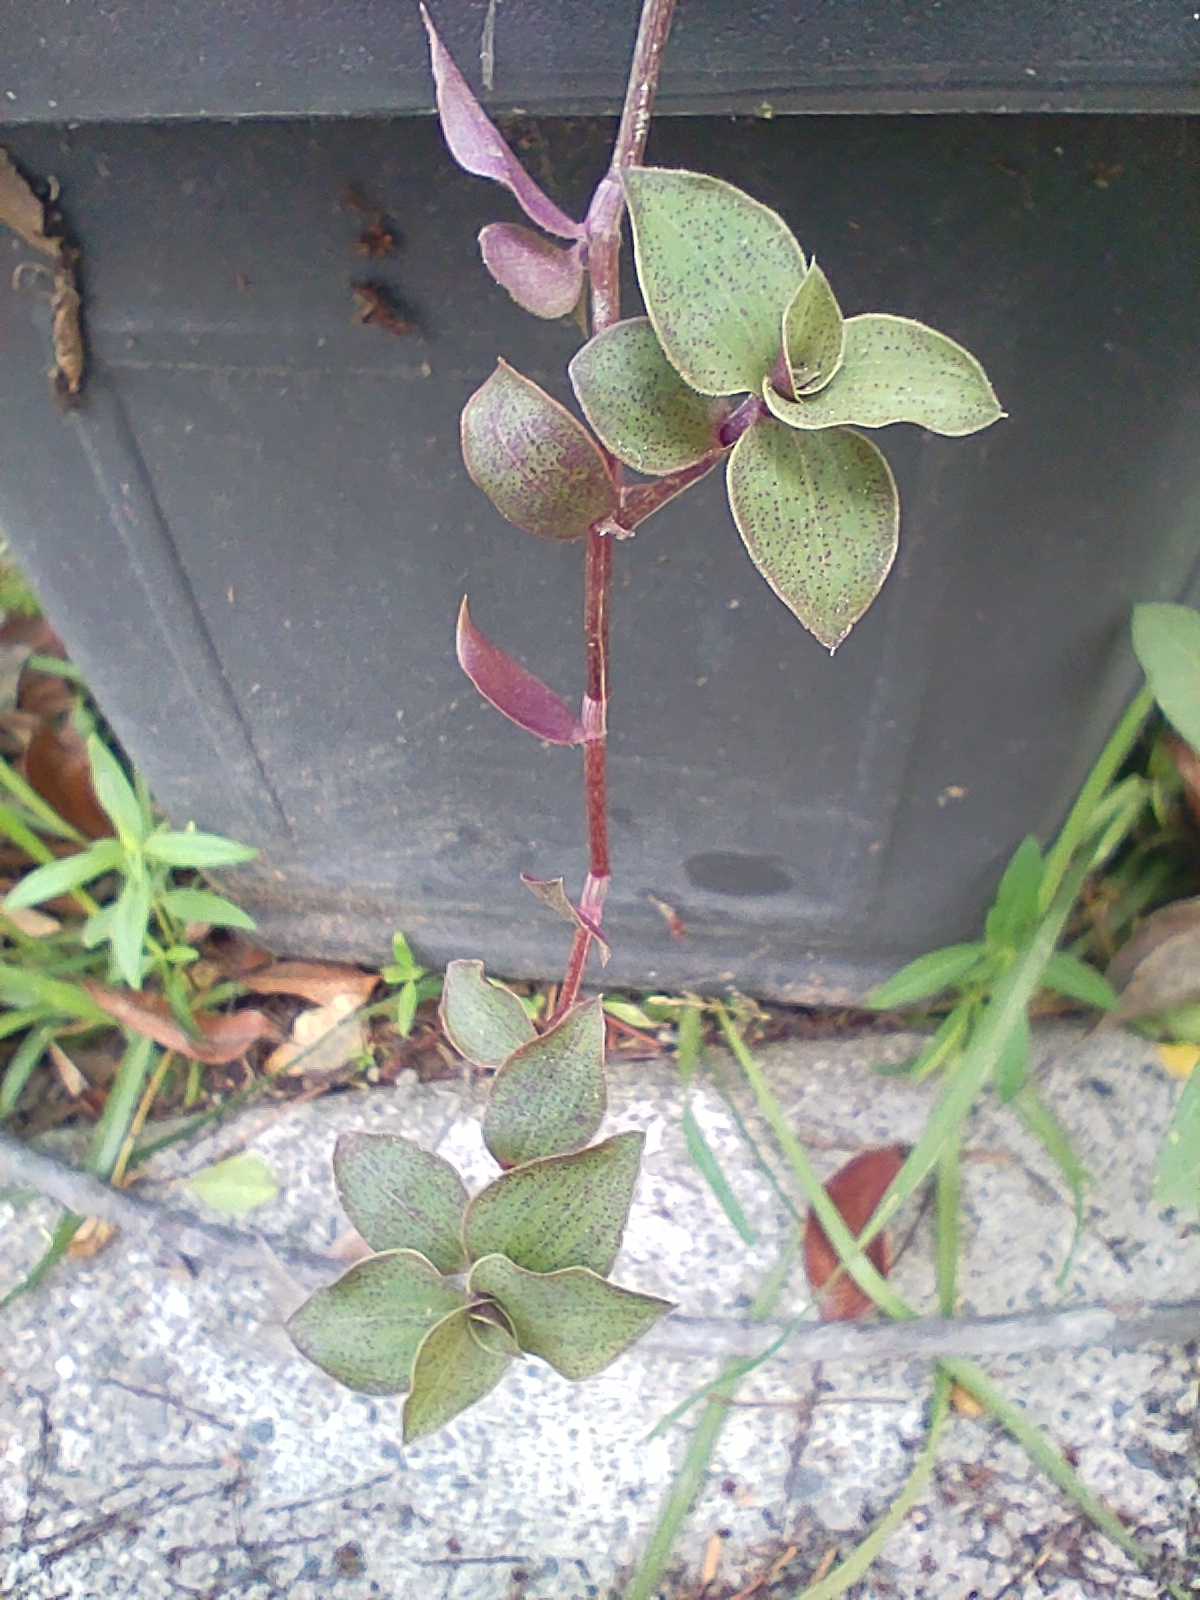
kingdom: Plantae
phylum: Tracheophyta
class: Liliopsida
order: Commelinales
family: Commelinaceae
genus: Callisia
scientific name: Callisia repens
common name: Creeping inchplant
